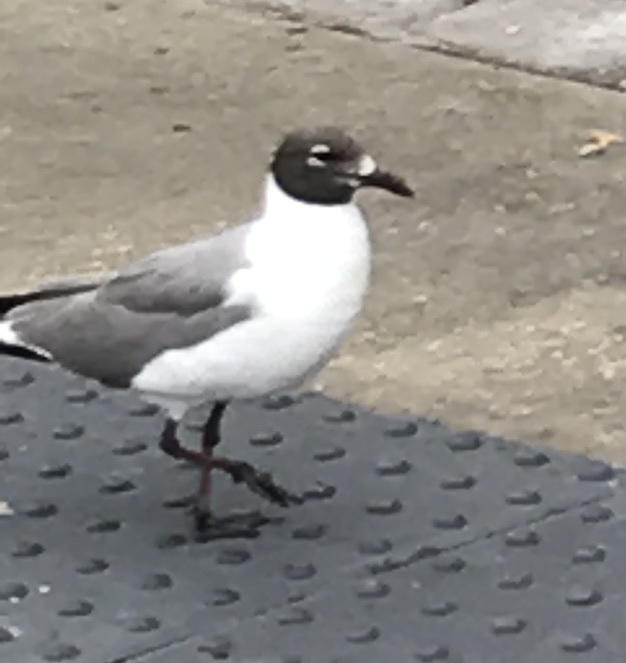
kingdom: Animalia
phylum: Chordata
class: Aves
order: Charadriiformes
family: Laridae
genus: Leucophaeus
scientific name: Leucophaeus atricilla
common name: Laughing gull
